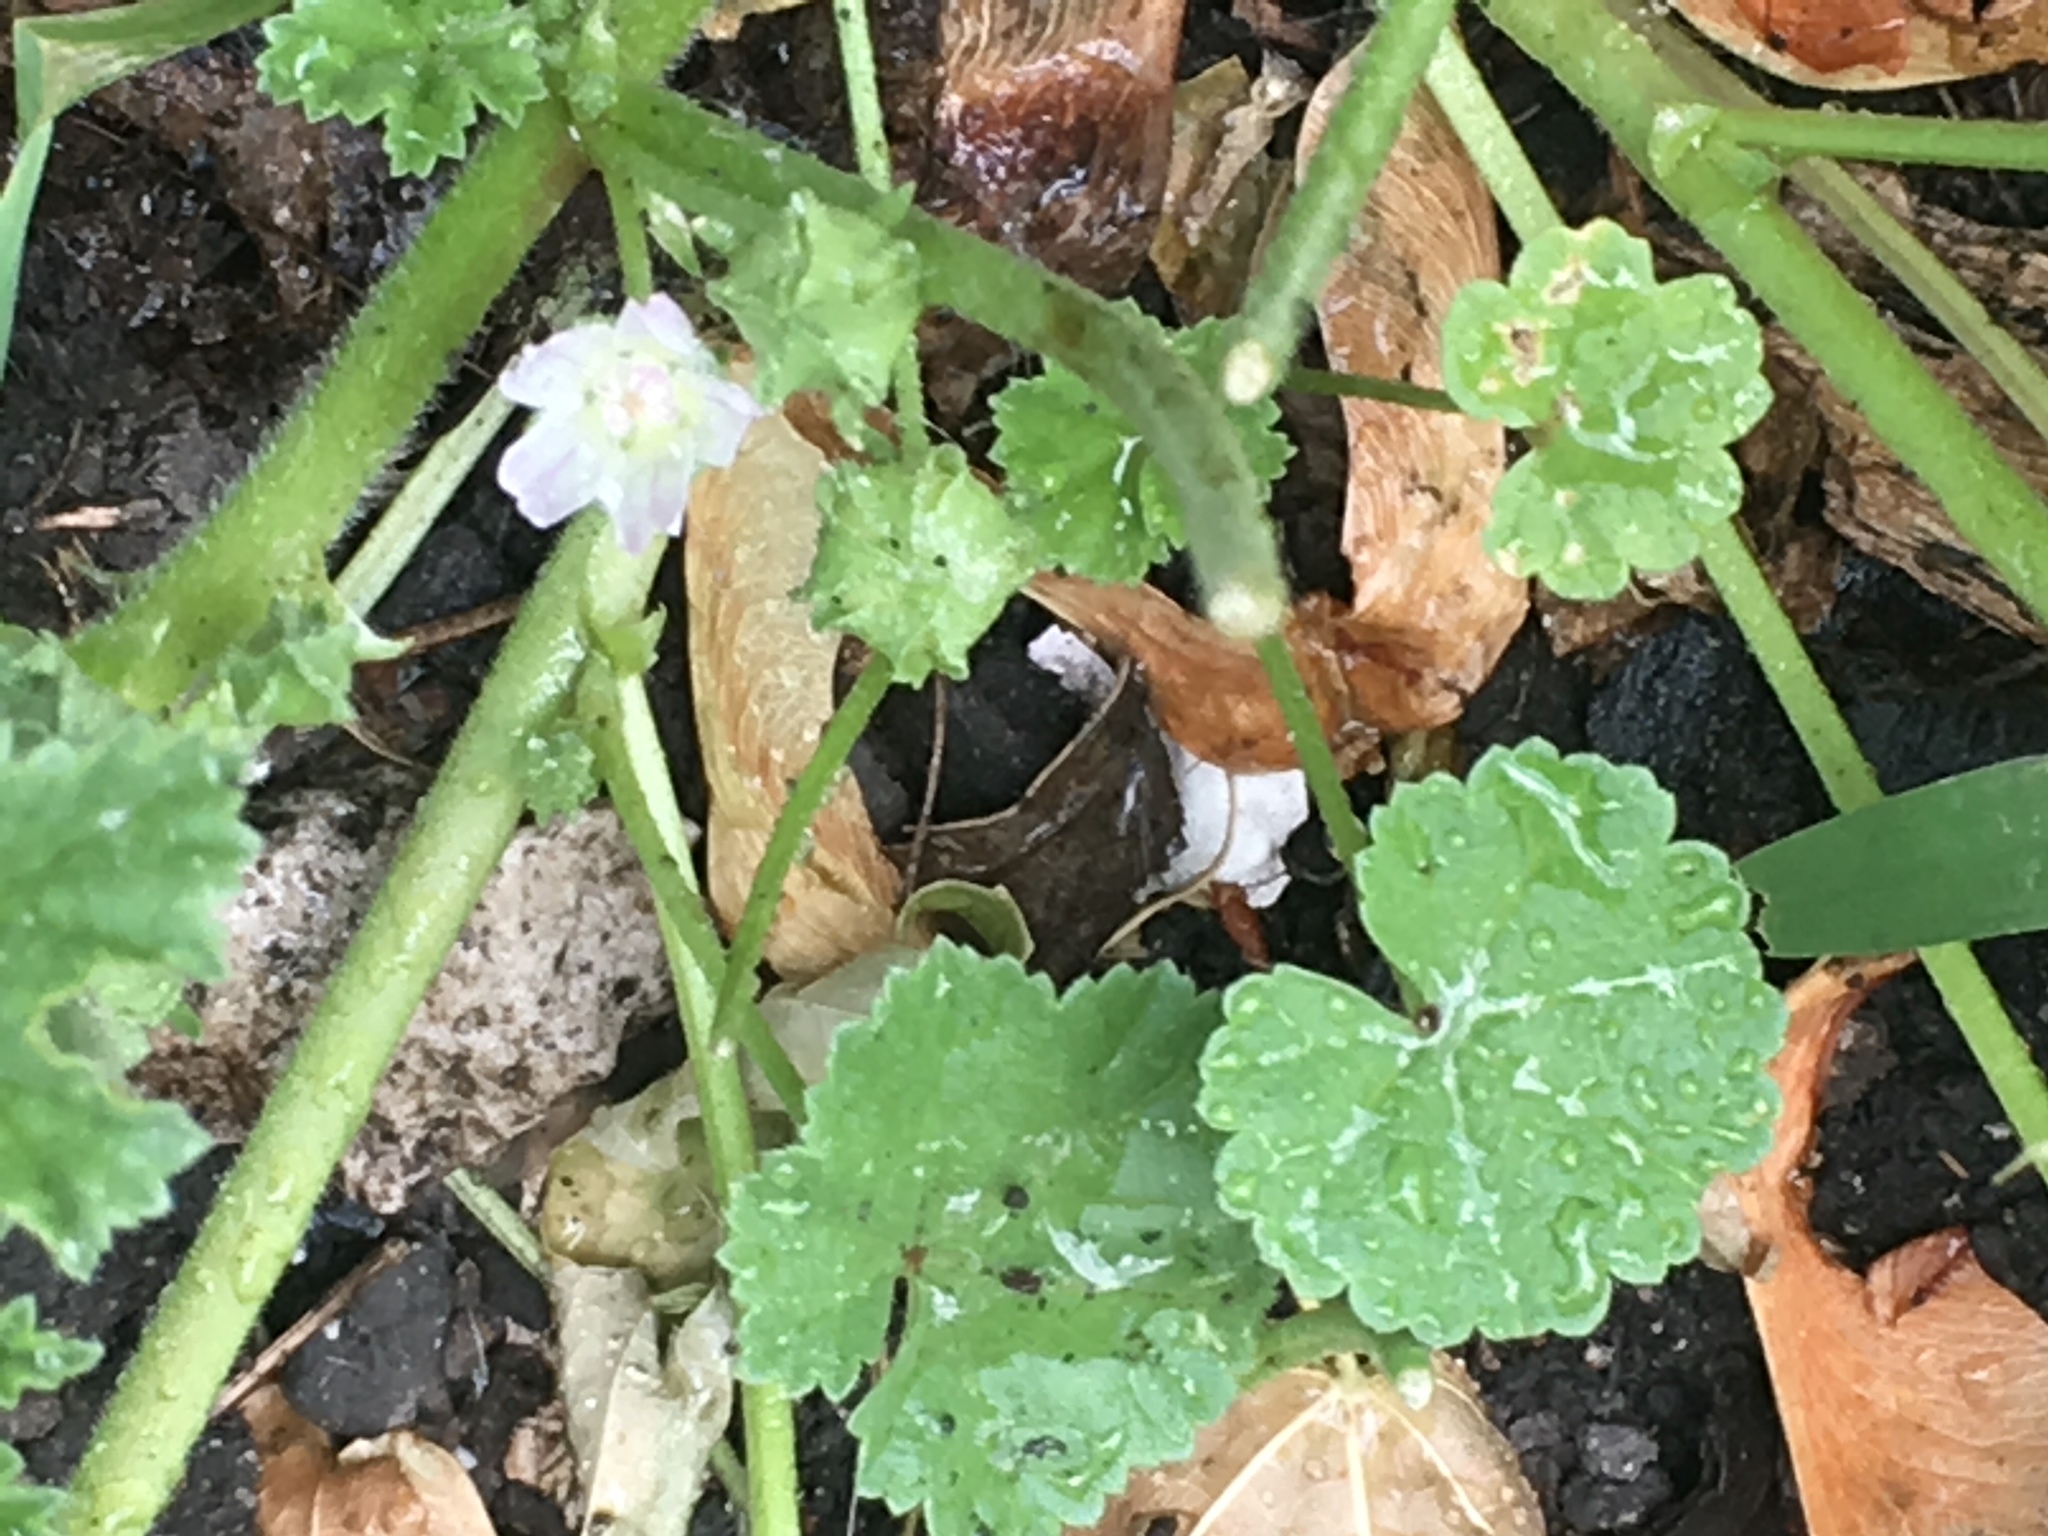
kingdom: Plantae
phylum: Tracheophyta
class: Magnoliopsida
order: Malvales
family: Malvaceae
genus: Malva
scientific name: Malva neglecta
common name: Common mallow
